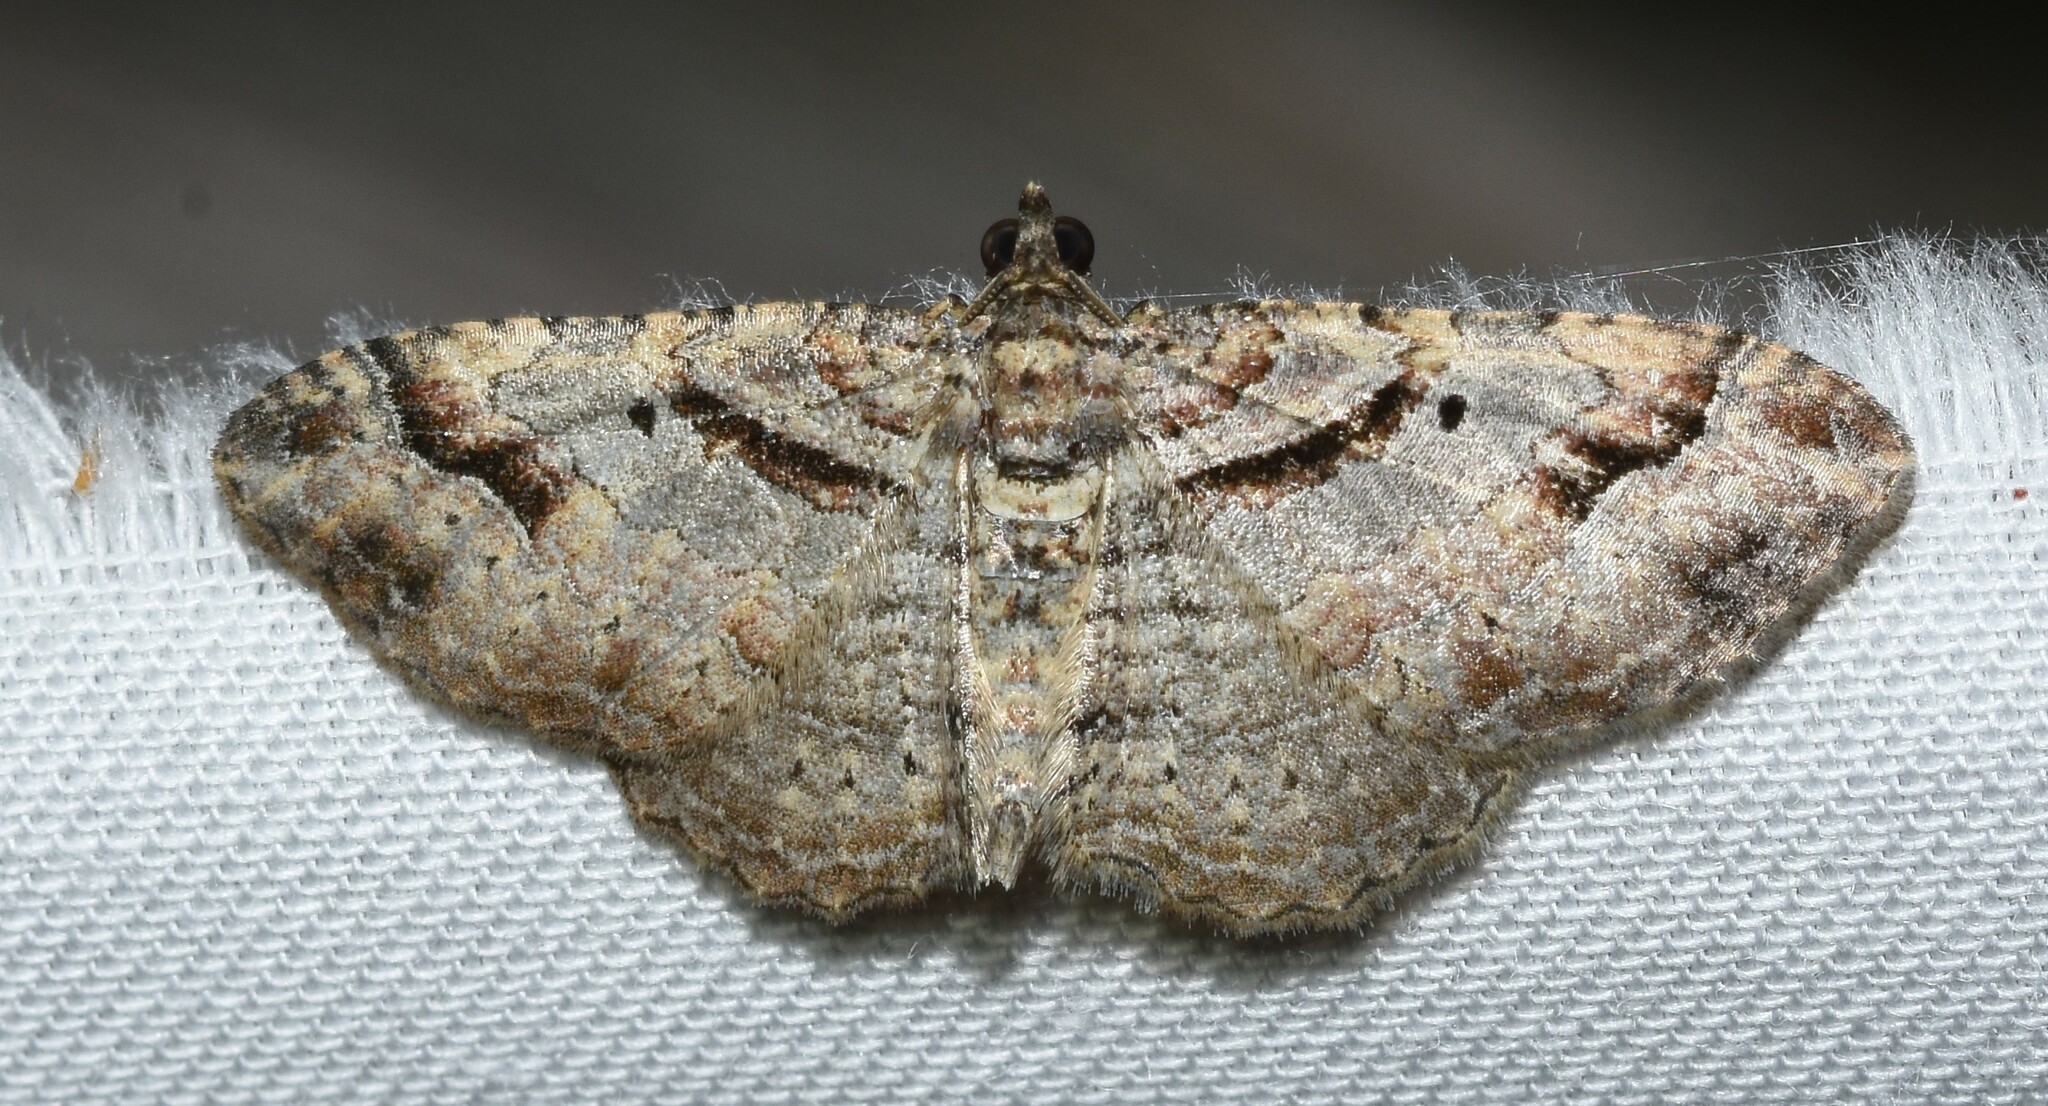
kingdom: Animalia
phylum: Arthropoda
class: Insecta
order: Lepidoptera
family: Geometridae
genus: Costaconvexa
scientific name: Costaconvexa centrostrigaria
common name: Bent-line carpet
